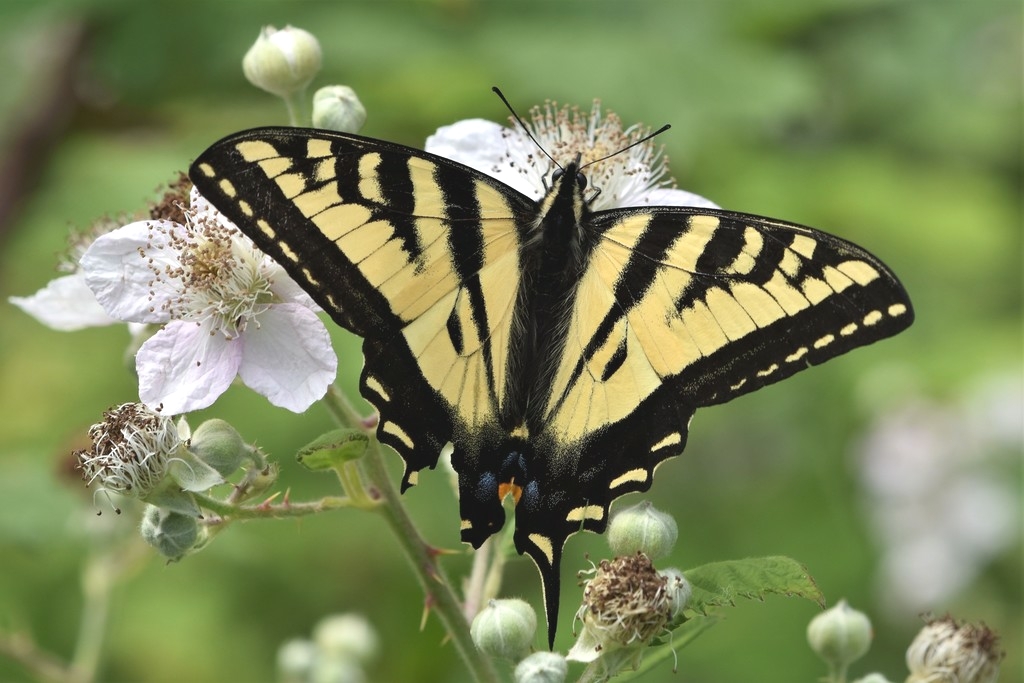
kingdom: Animalia
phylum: Arthropoda
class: Insecta
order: Lepidoptera
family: Papilionidae
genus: Papilio
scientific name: Papilio rutulus
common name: Western tiger swallowtail
